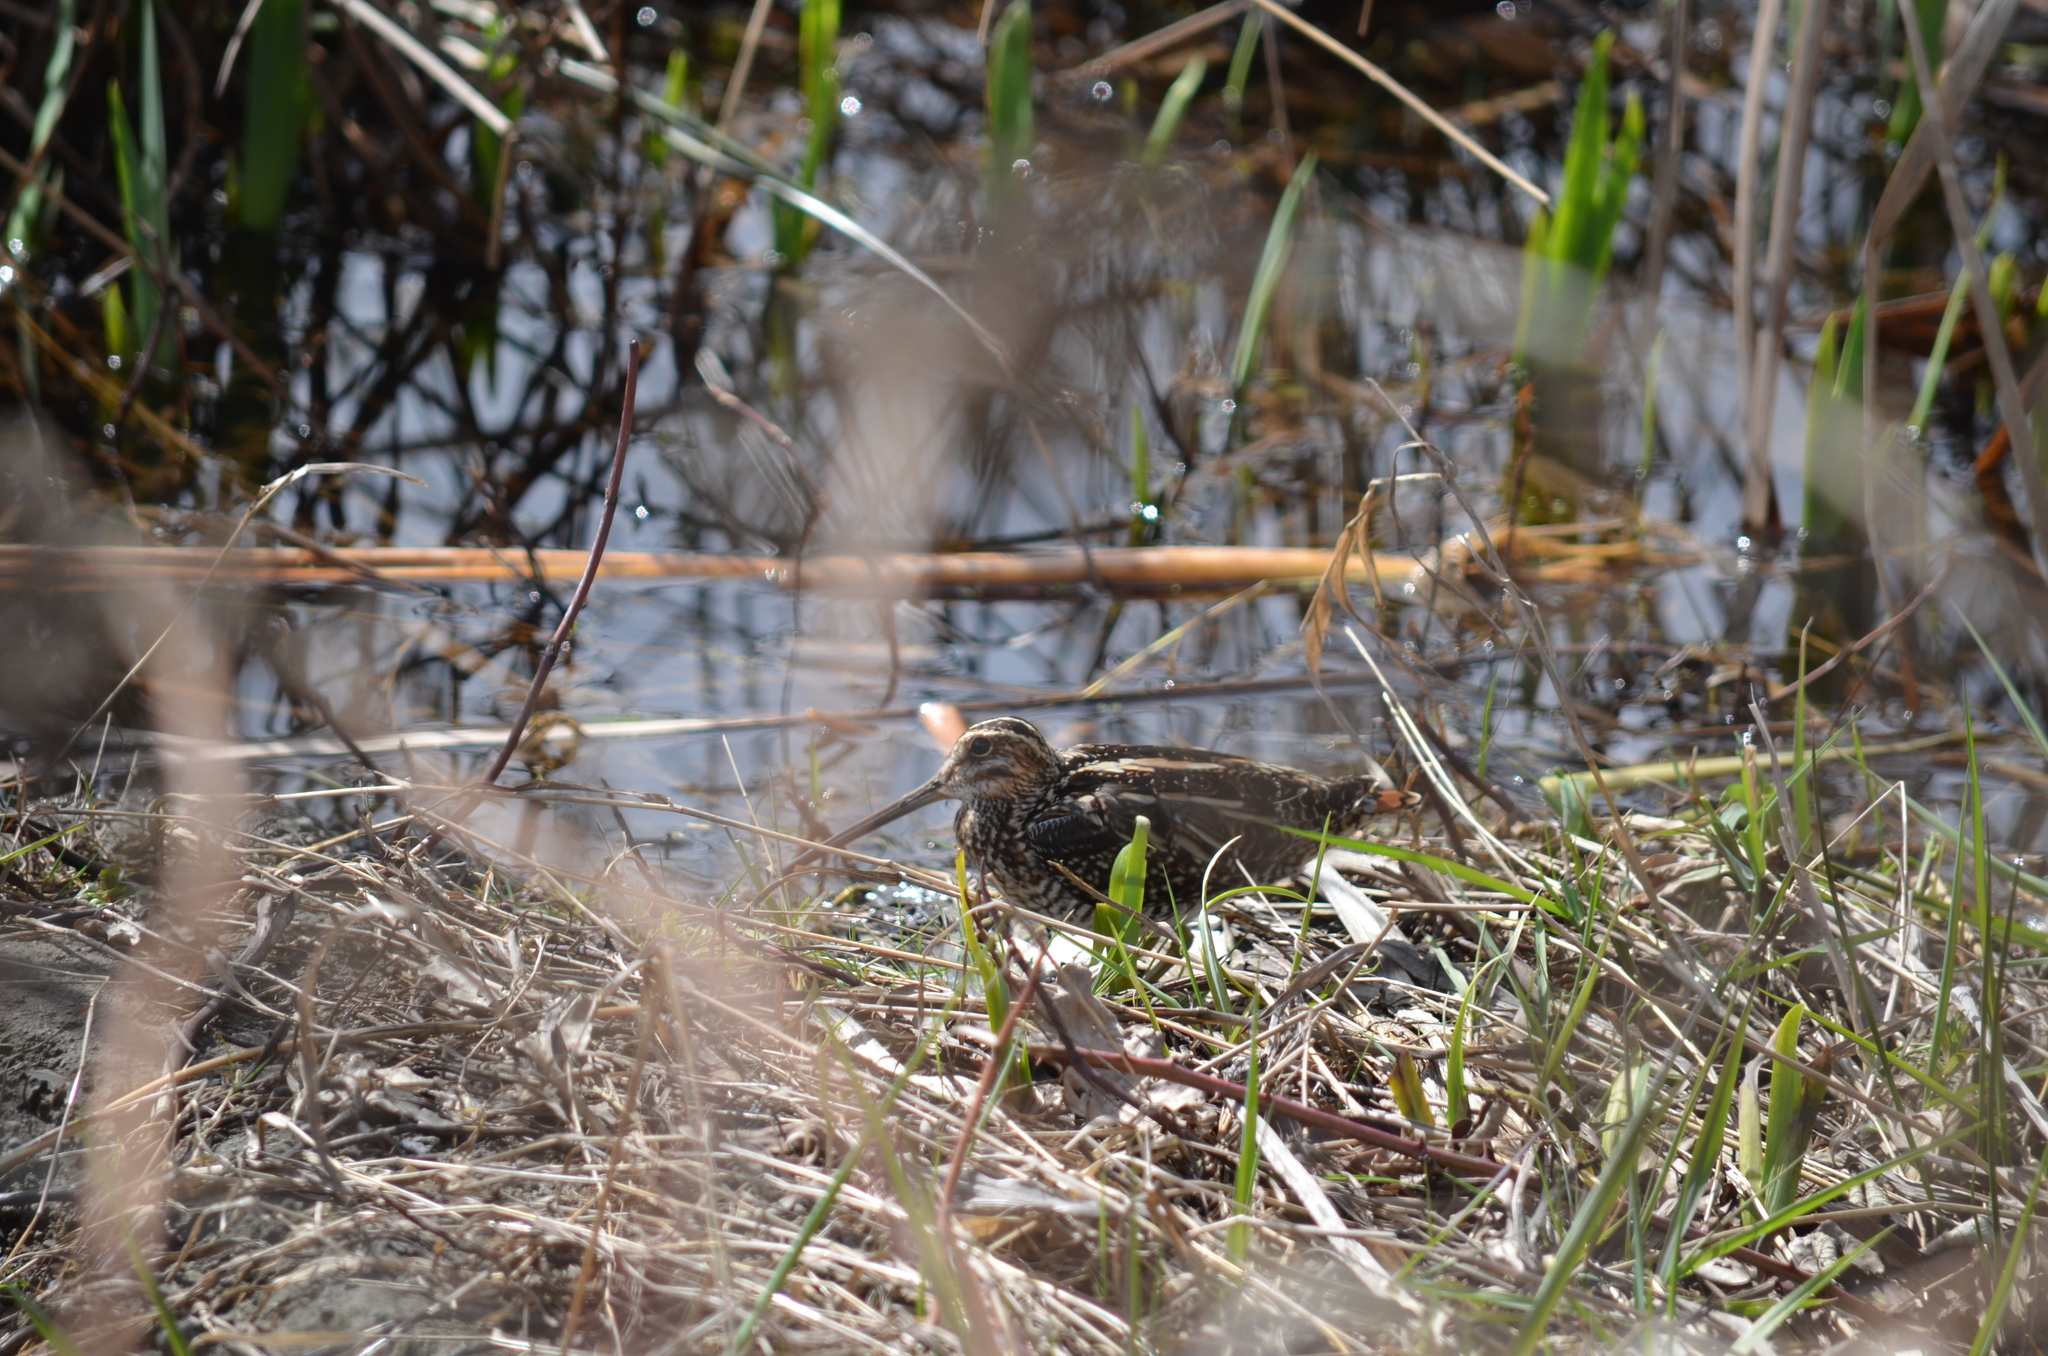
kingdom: Animalia
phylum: Chordata
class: Aves
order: Charadriiformes
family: Scolopacidae
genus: Gallinago
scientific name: Gallinago delicata
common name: Wilson's snipe
